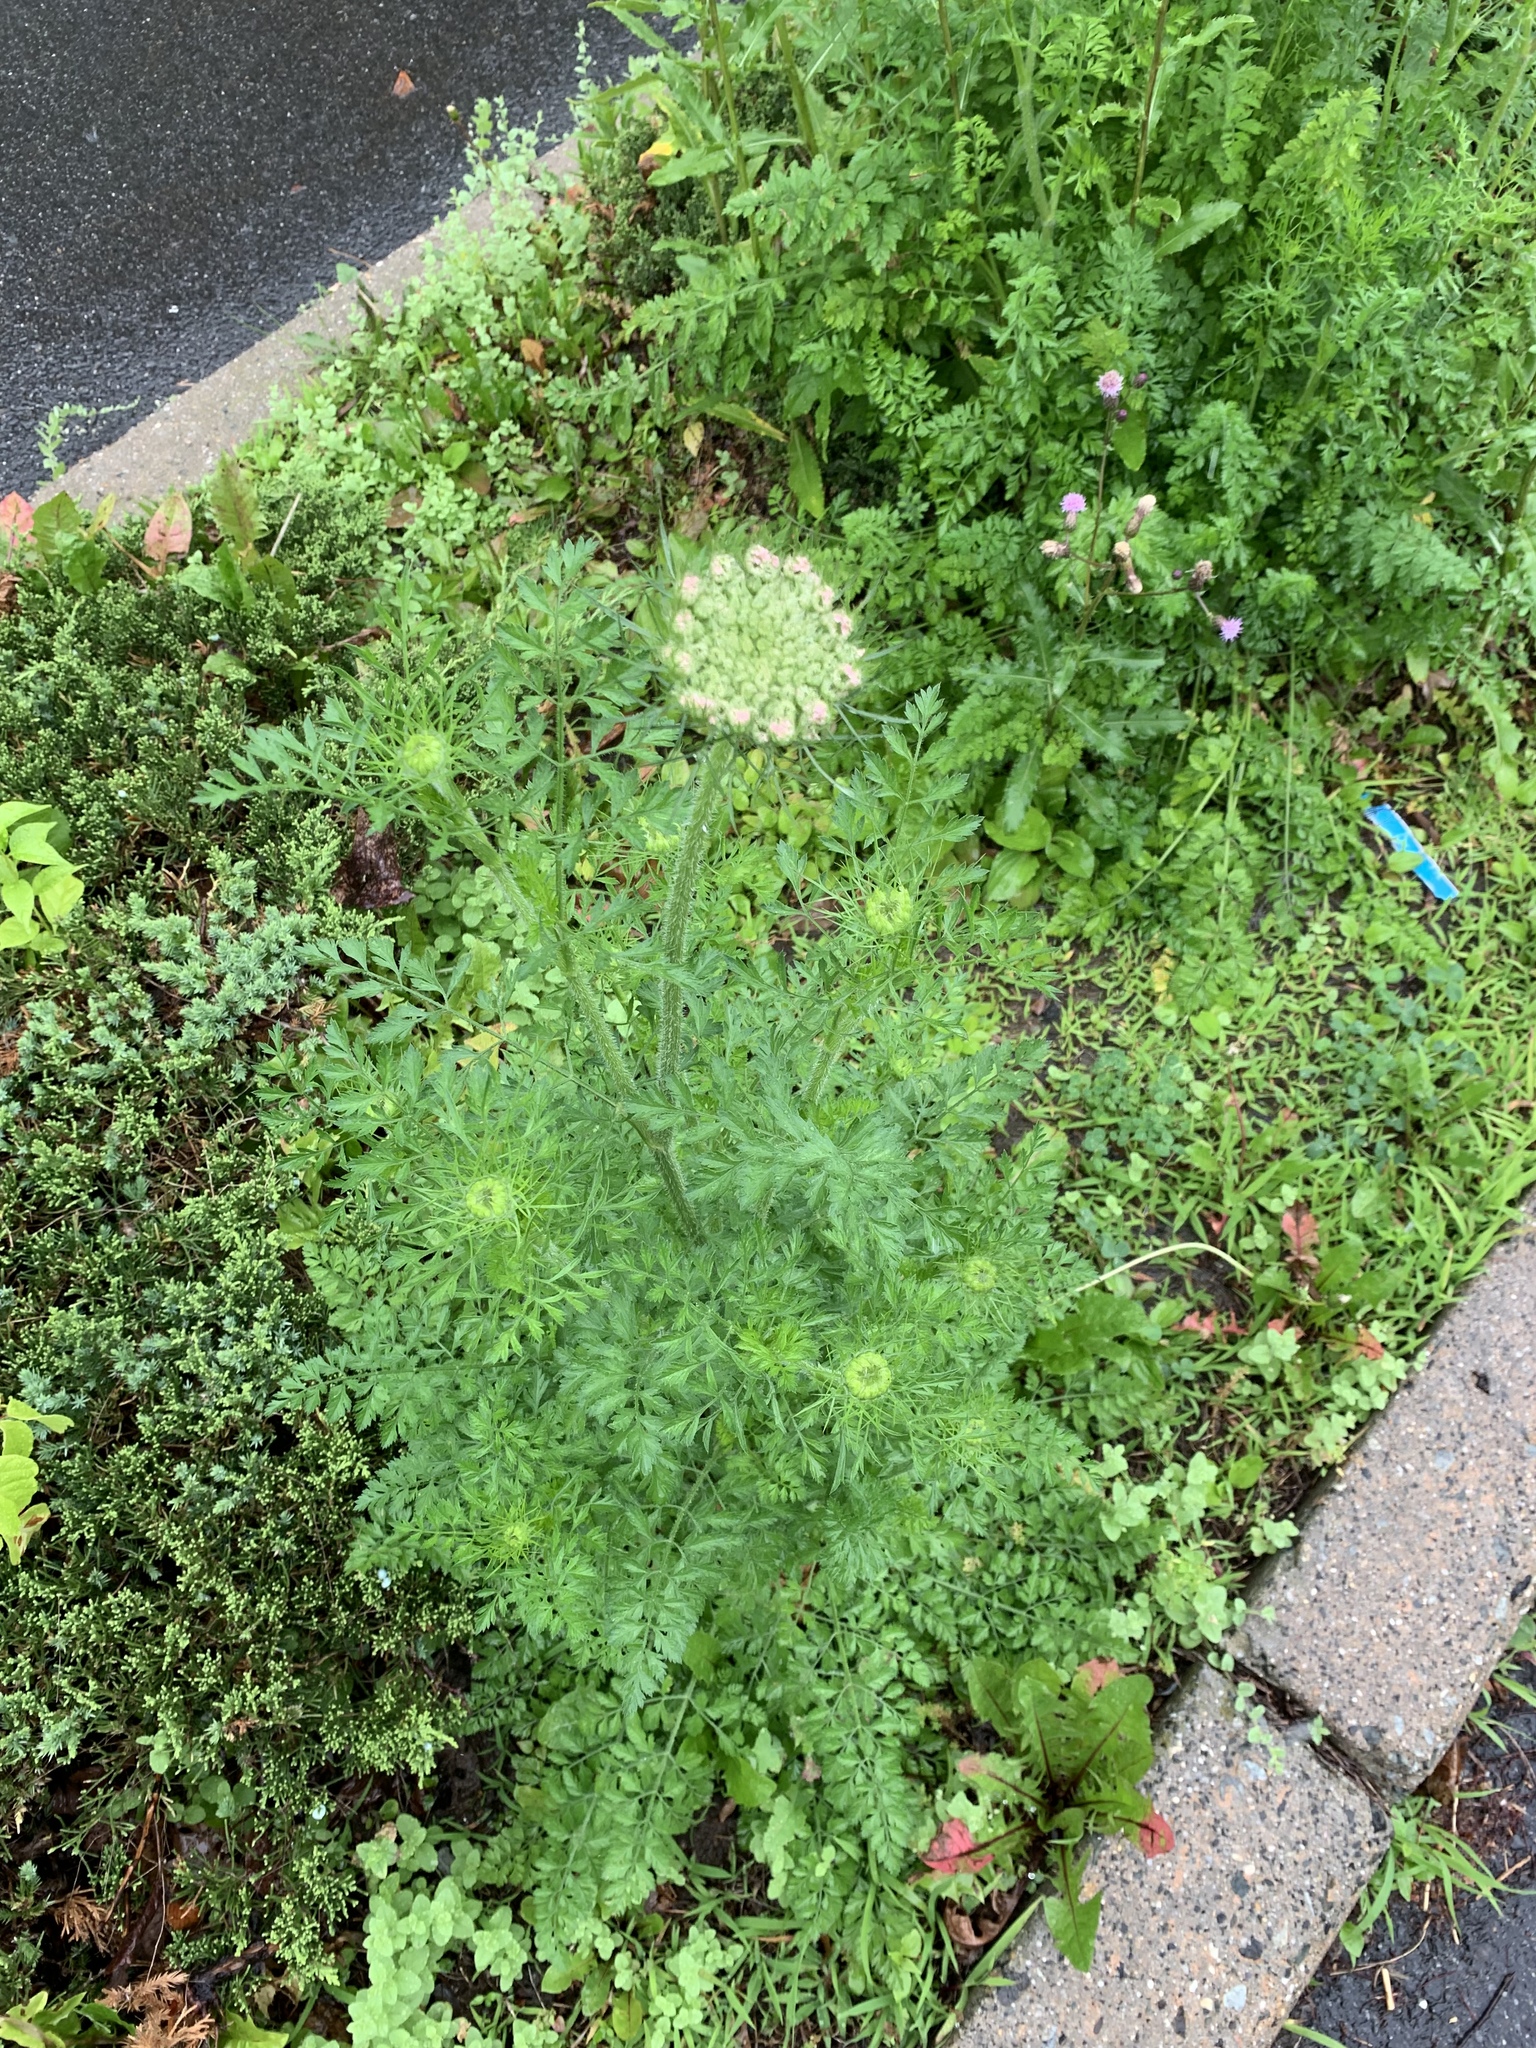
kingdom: Plantae
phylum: Tracheophyta
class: Magnoliopsida
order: Apiales
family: Apiaceae
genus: Daucus
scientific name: Daucus carota
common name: Wild carrot
